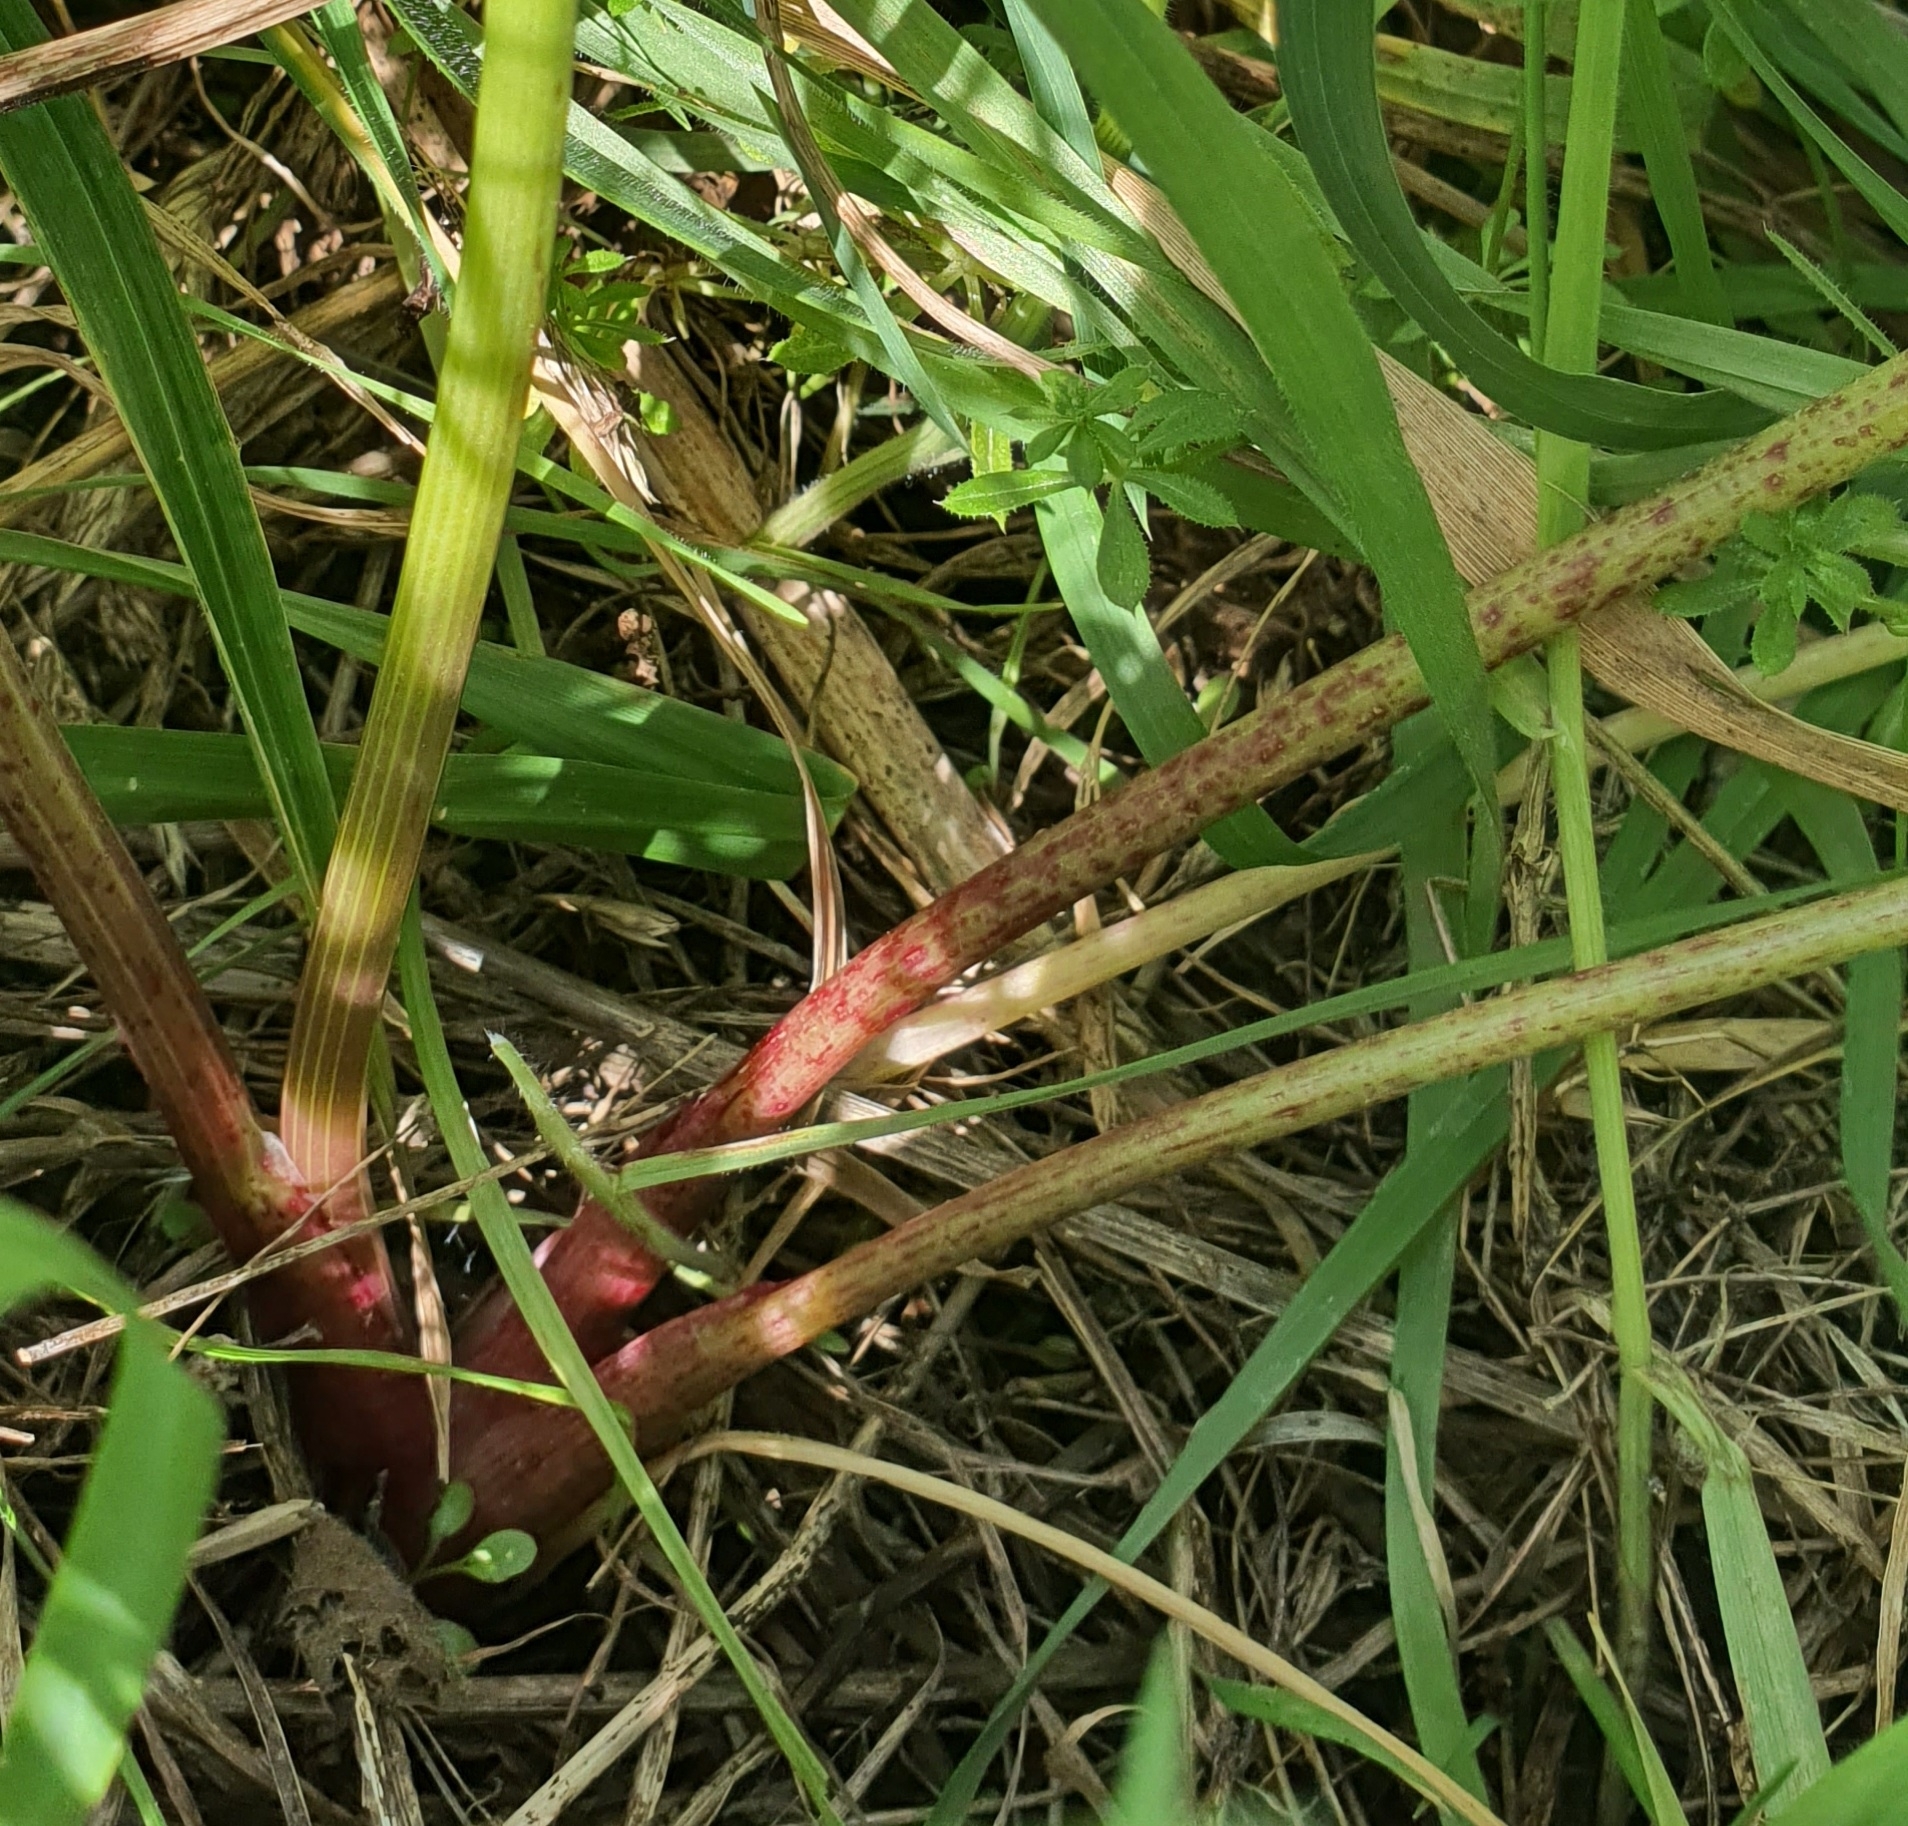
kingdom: Plantae
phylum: Tracheophyta
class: Magnoliopsida
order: Apiales
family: Apiaceae
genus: Conium
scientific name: Conium maculatum
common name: Hemlock
